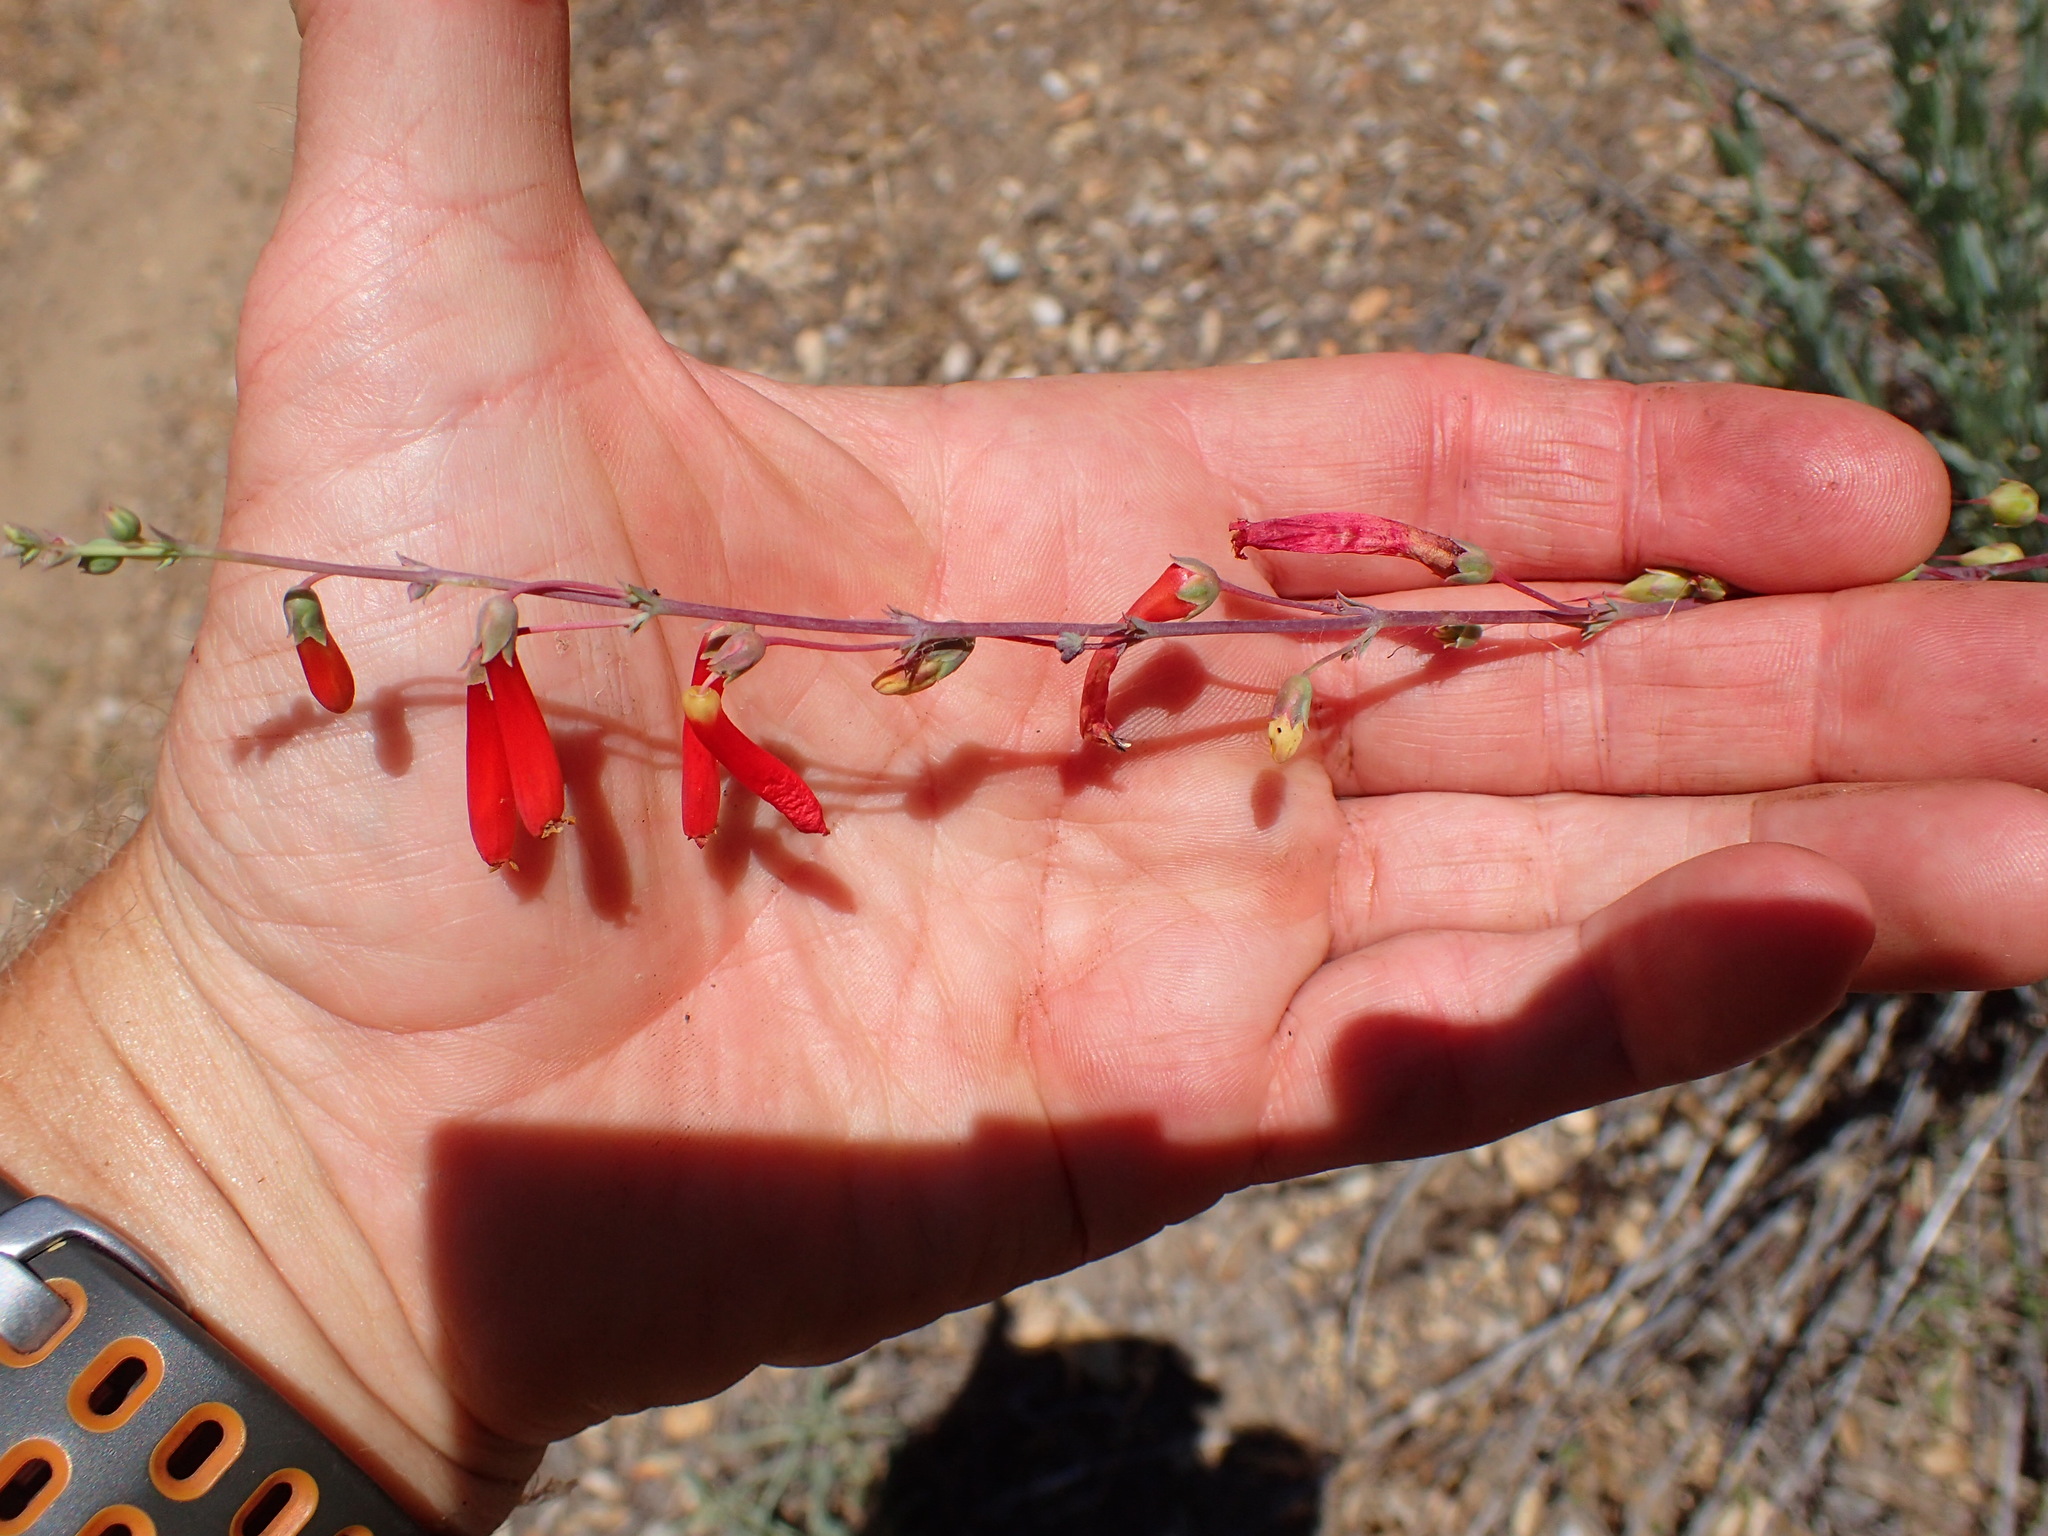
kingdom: Plantae
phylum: Tracheophyta
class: Magnoliopsida
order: Lamiales
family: Plantaginaceae
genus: Penstemon
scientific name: Penstemon centranthifolius
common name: Scarlet bugler
